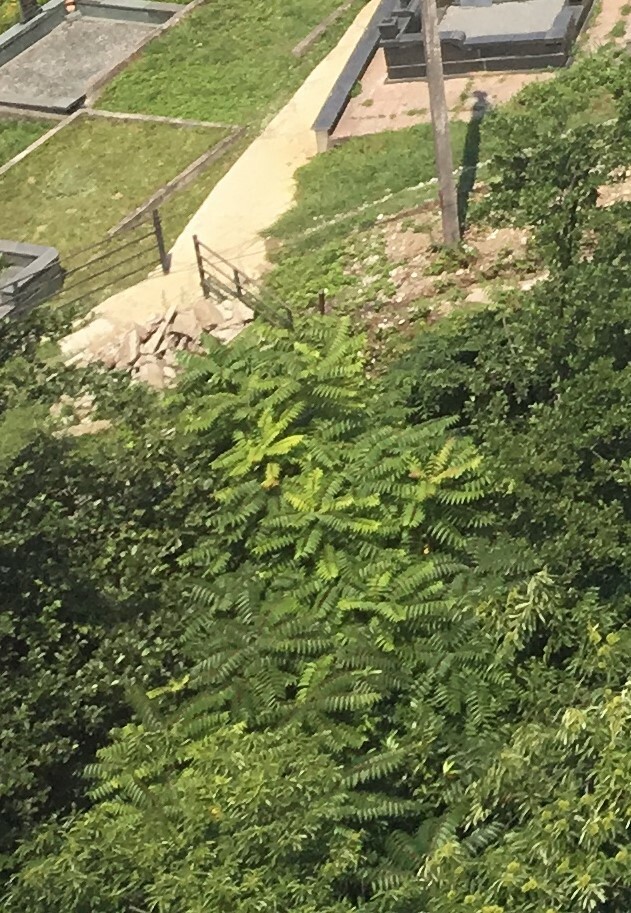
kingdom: Plantae
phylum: Tracheophyta
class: Magnoliopsida
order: Sapindales
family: Simaroubaceae
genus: Ailanthus
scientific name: Ailanthus altissima
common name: Tree-of-heaven
